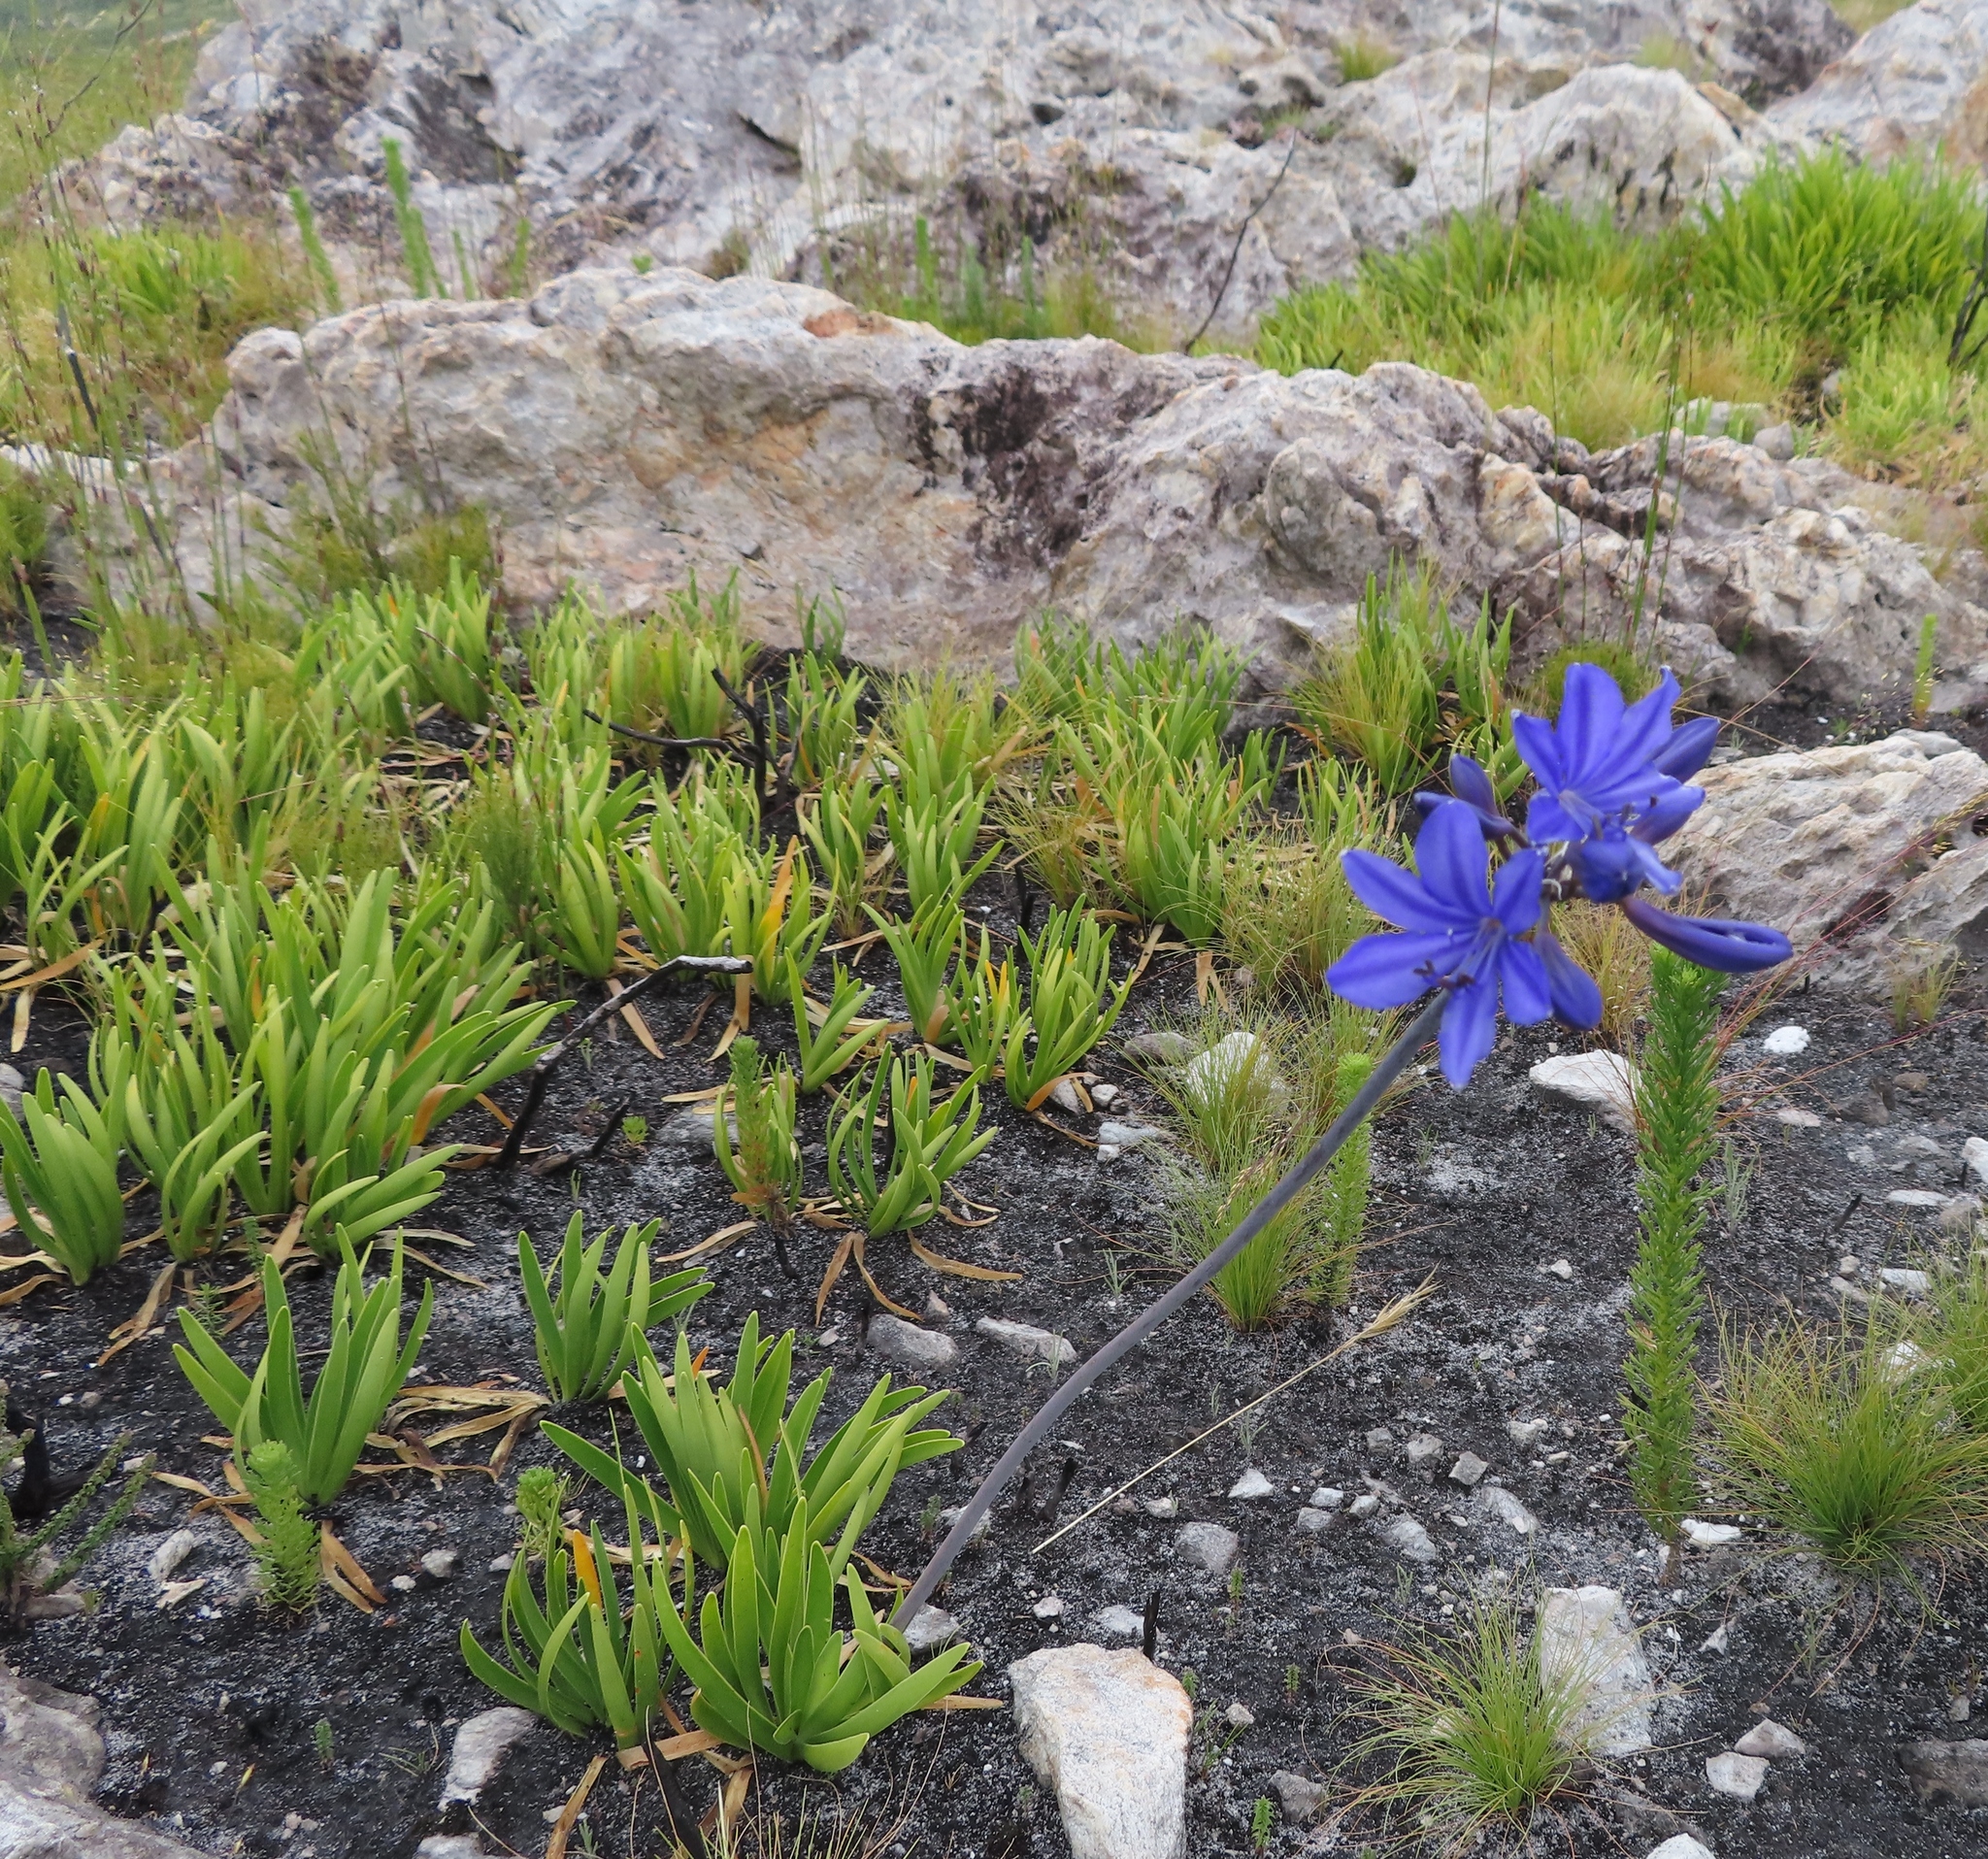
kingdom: Plantae
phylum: Tracheophyta
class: Liliopsida
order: Asparagales
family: Amaryllidaceae
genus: Agapanthus
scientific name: Agapanthus africanus
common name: Lily-of-the-nile
